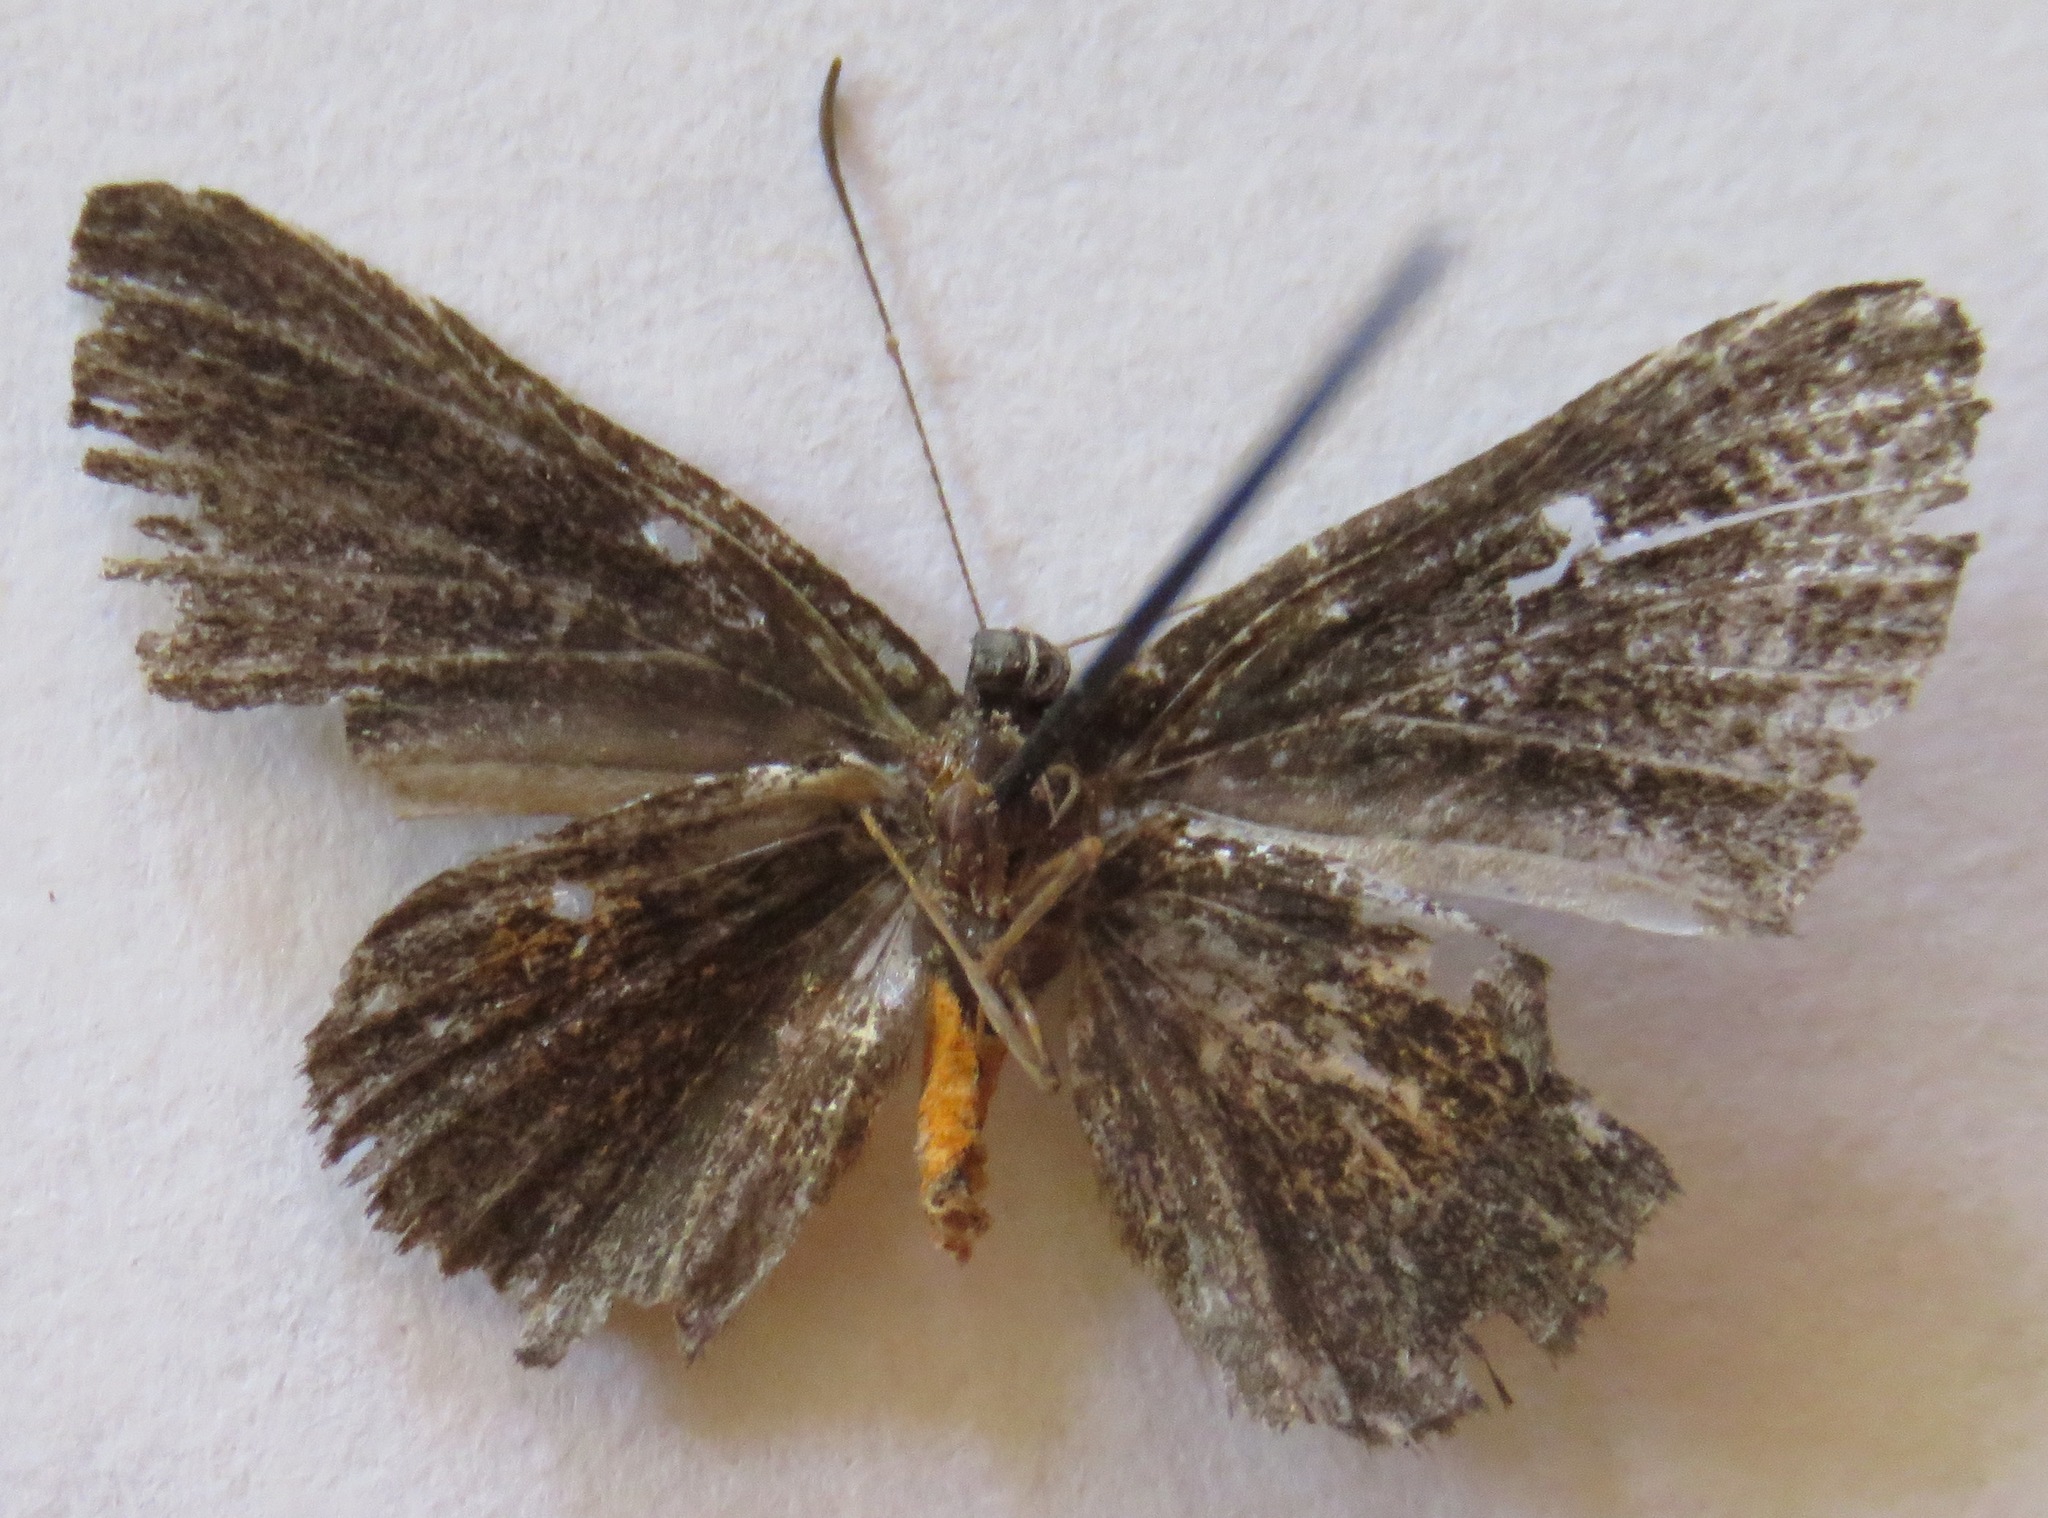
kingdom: Animalia
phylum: Arthropoda
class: Insecta
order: Lepidoptera
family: Riodinidae
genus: Pirascca
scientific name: Pirascca tyriotes
